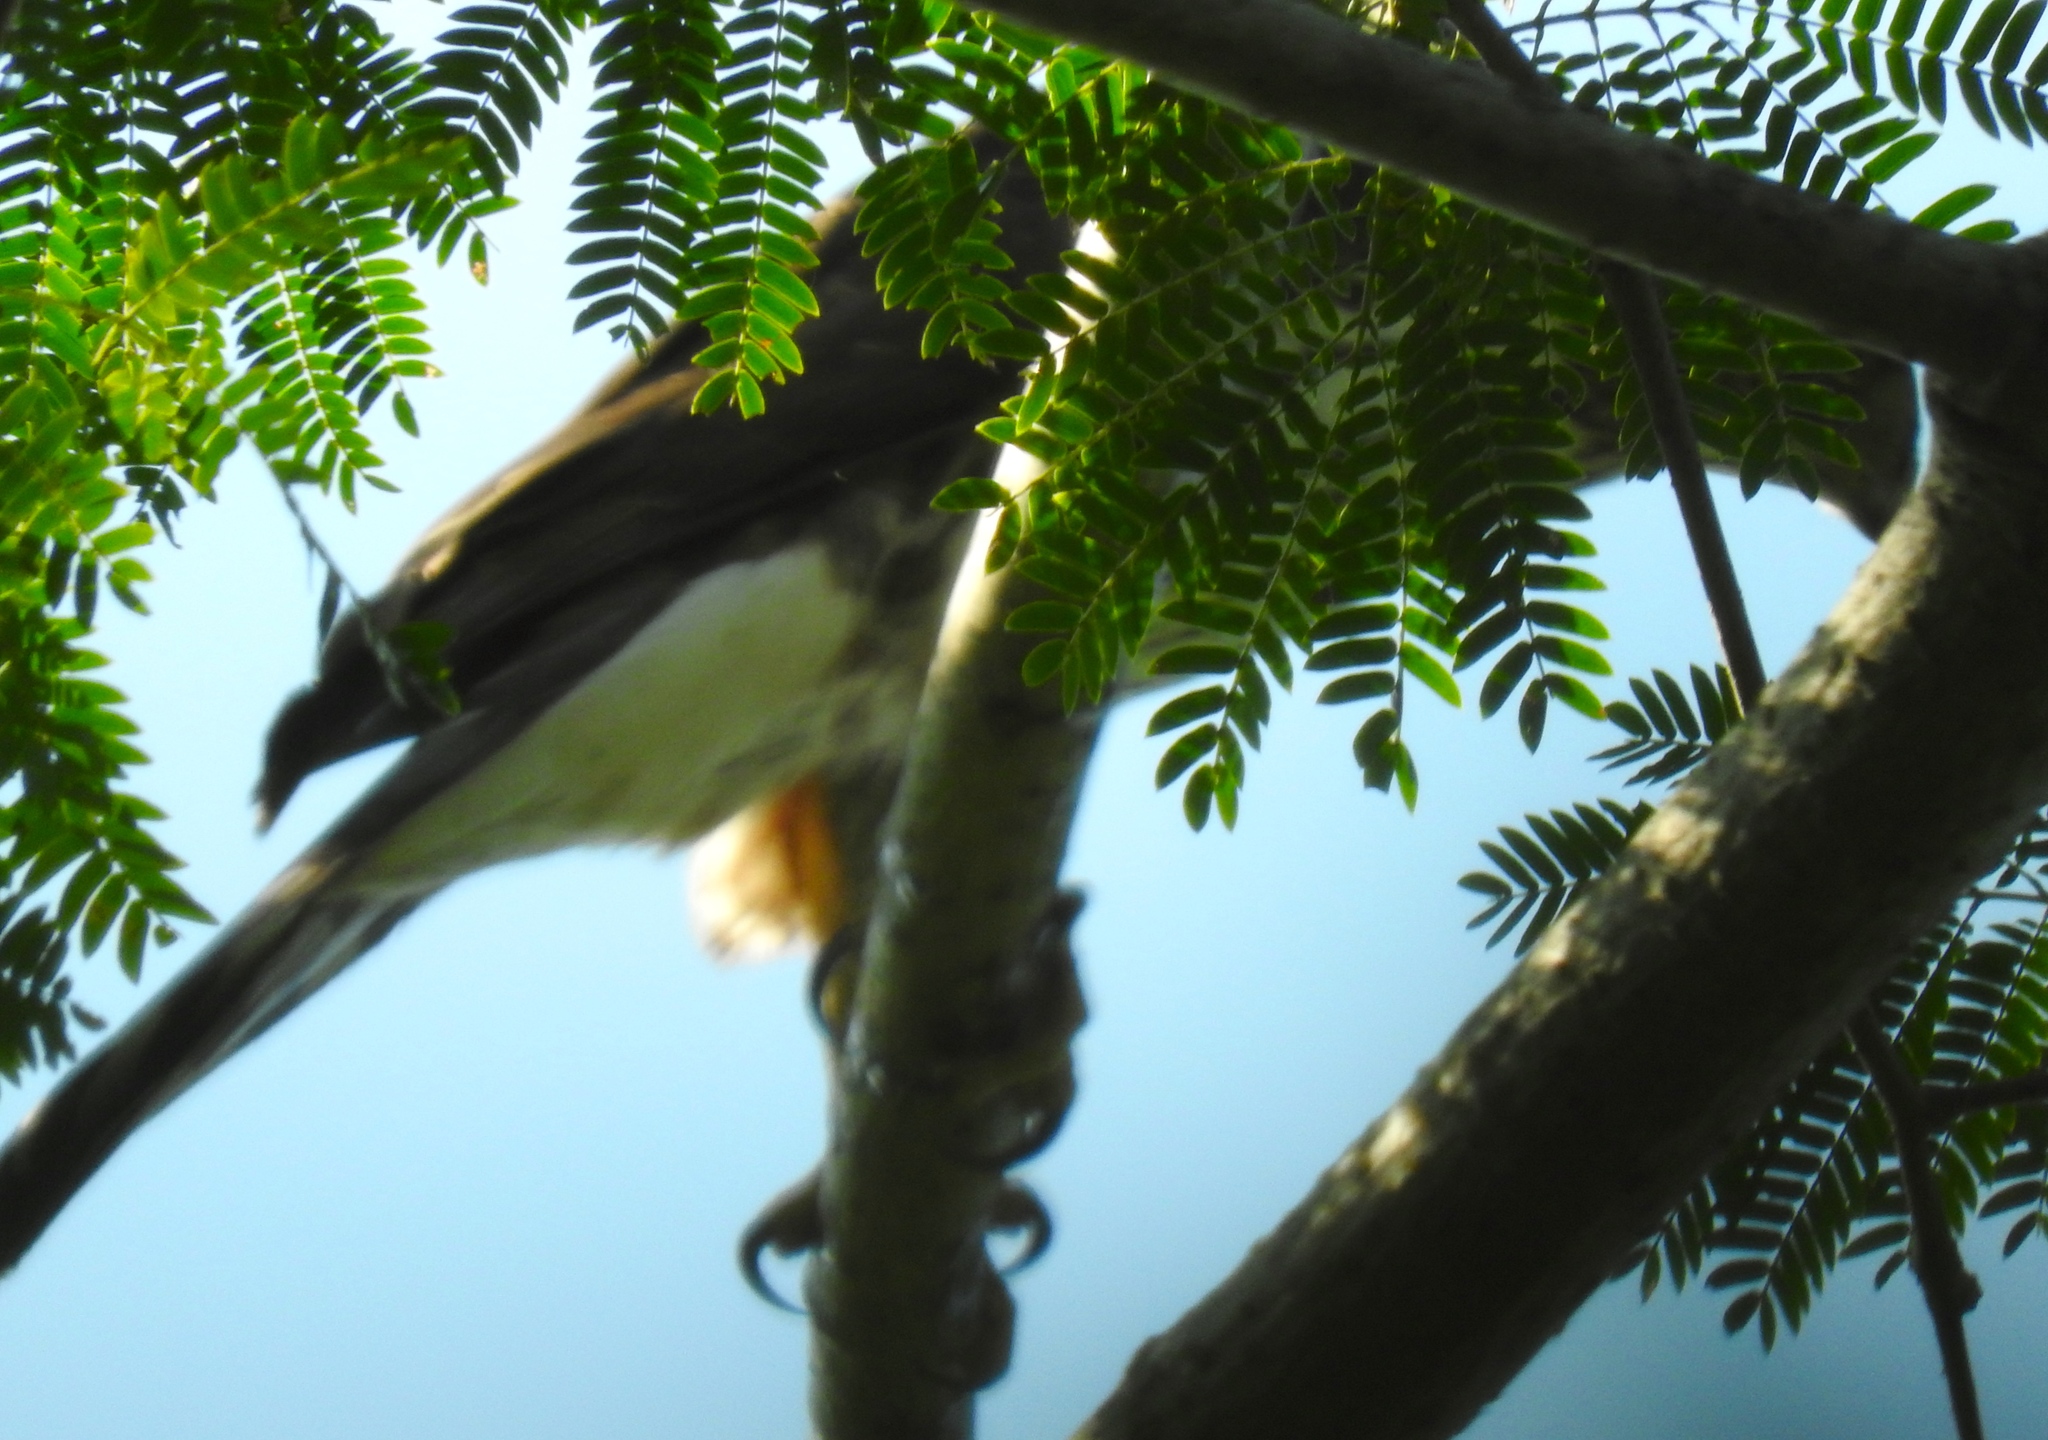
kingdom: Animalia
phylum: Chordata
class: Aves
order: Falconiformes
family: Falconidae
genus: Micrastur
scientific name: Micrastur semitorquatus
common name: Collared forest-falcon
